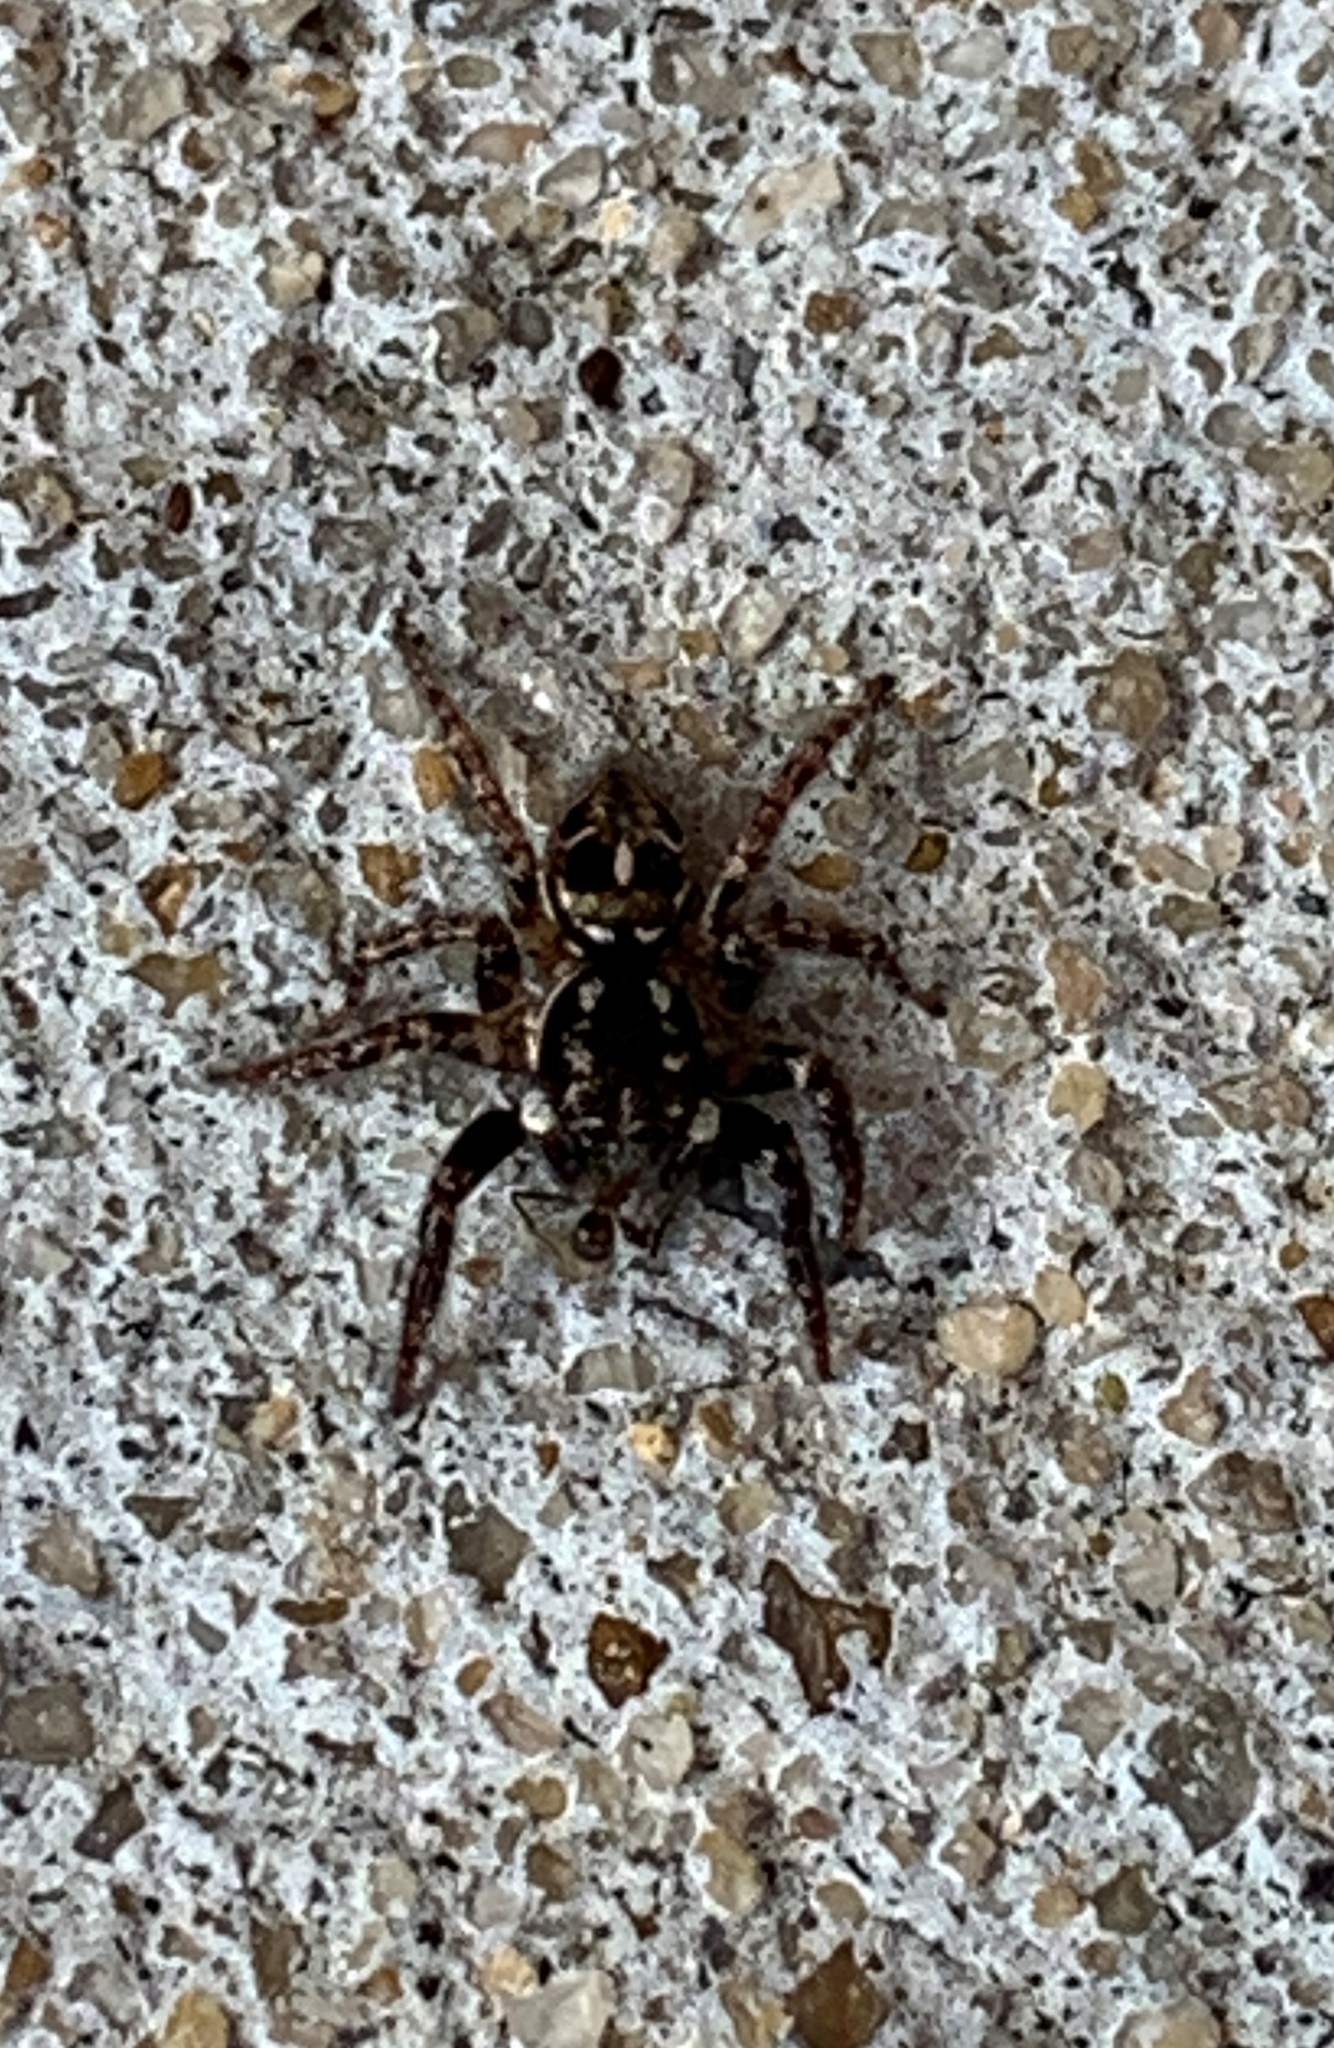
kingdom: Animalia
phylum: Arthropoda
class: Arachnida
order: Araneae
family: Salticidae
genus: Anasaitis
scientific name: Anasaitis canosa
